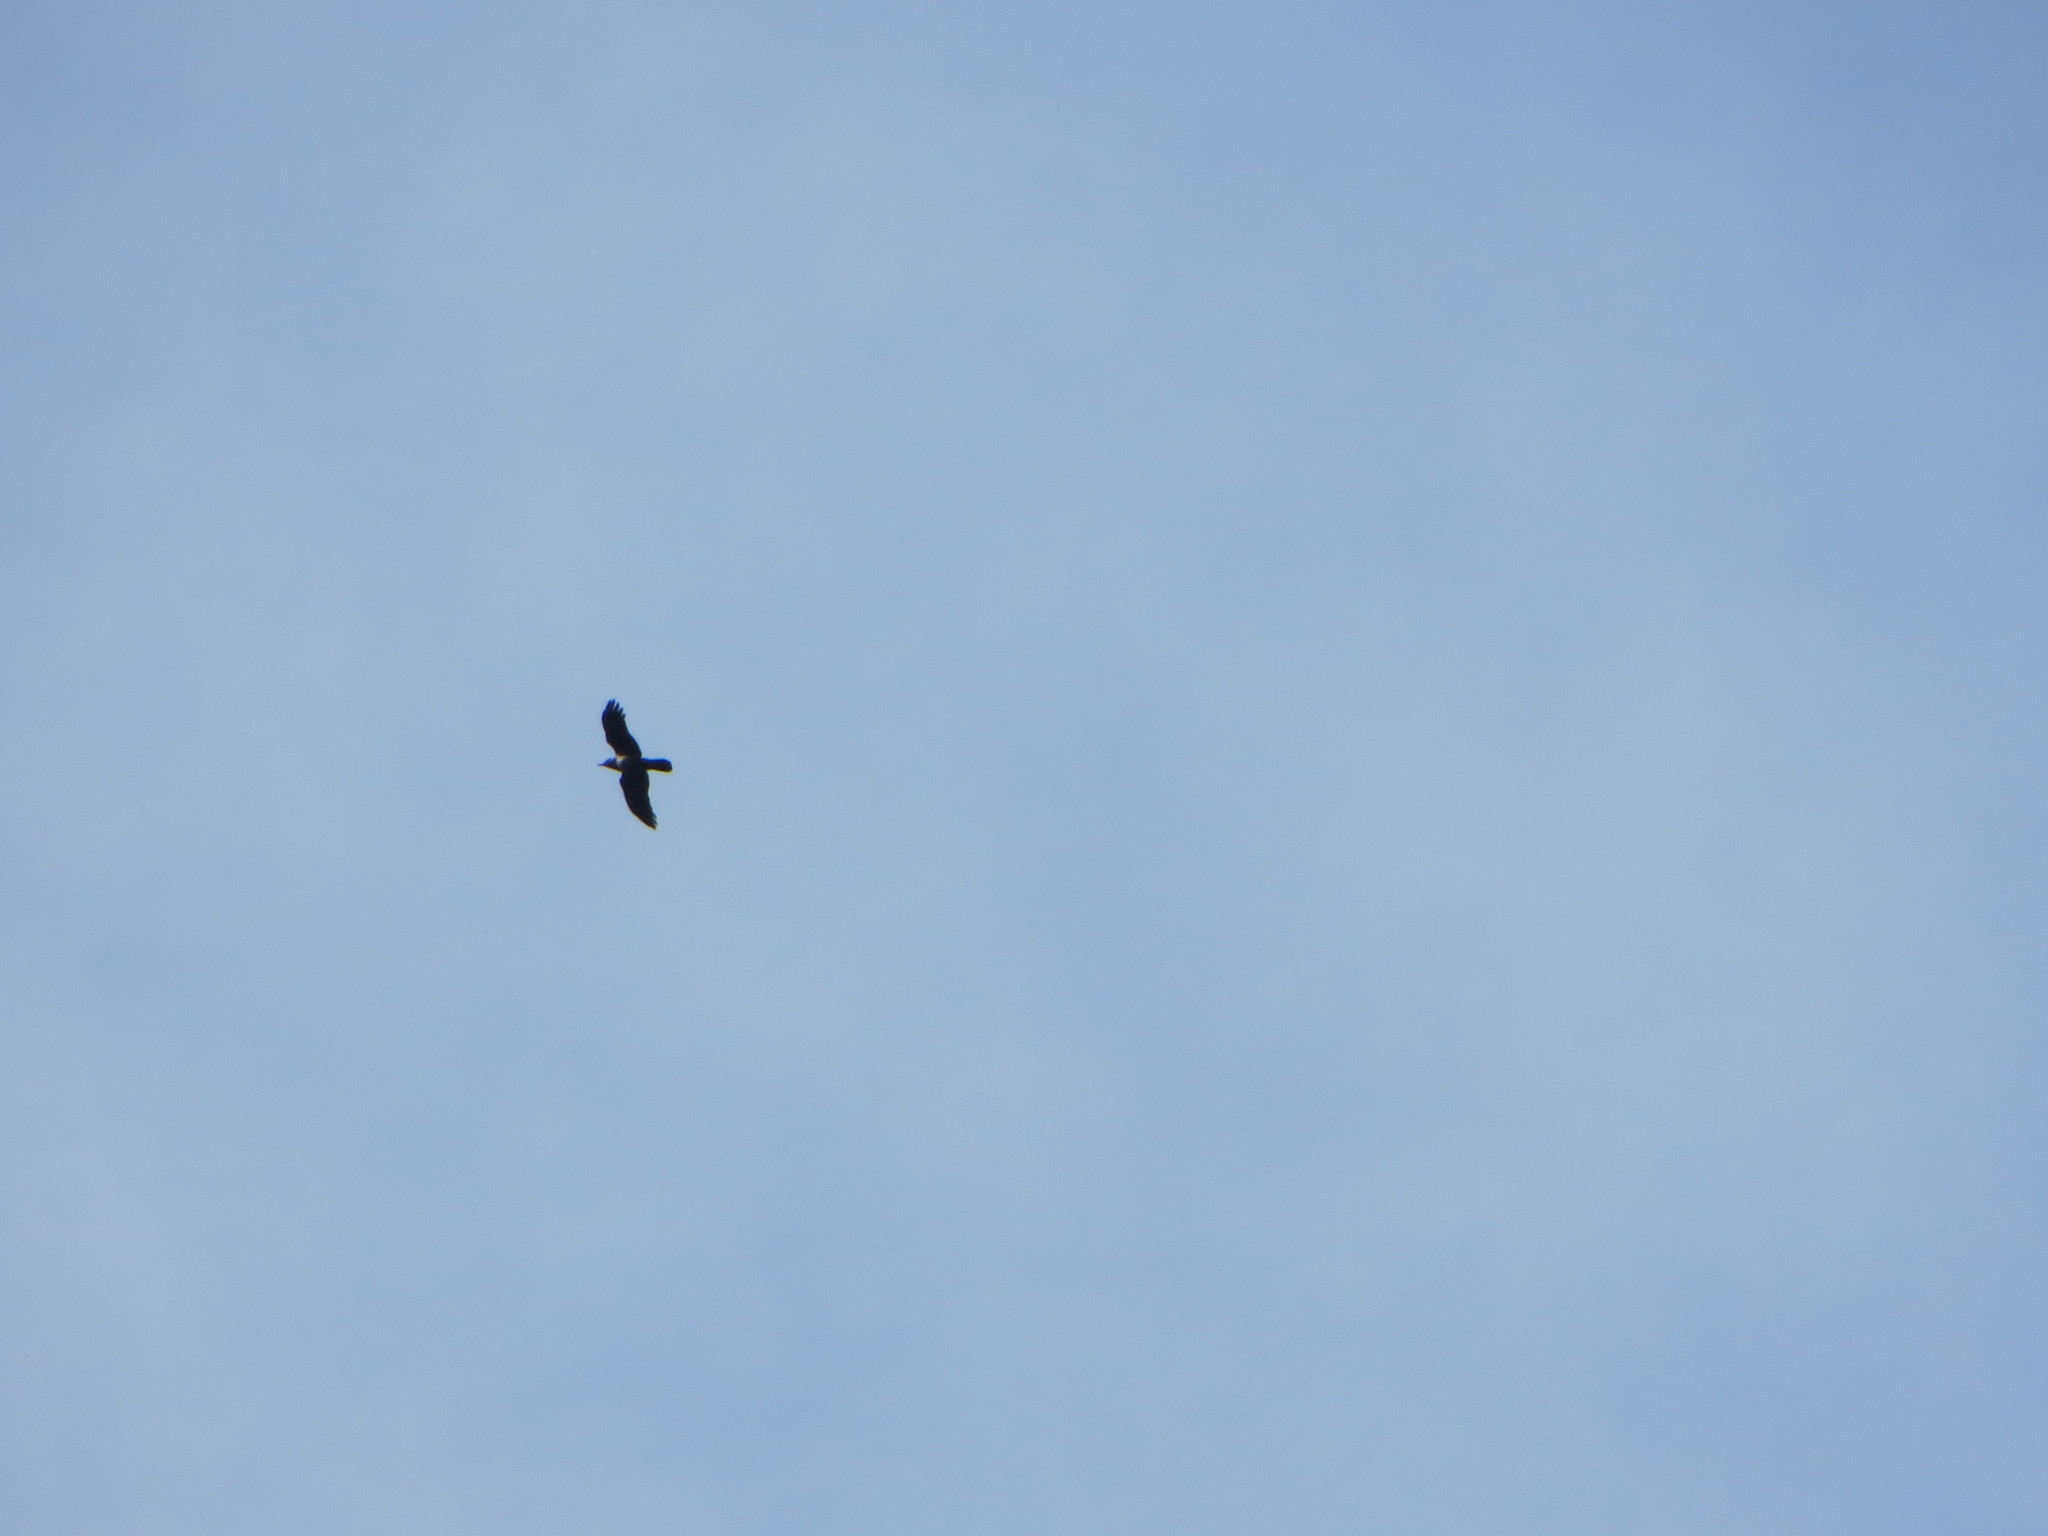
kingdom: Animalia
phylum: Chordata
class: Aves
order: Passeriformes
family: Corvidae
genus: Corvus
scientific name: Corvus cornix
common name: Hooded crow
